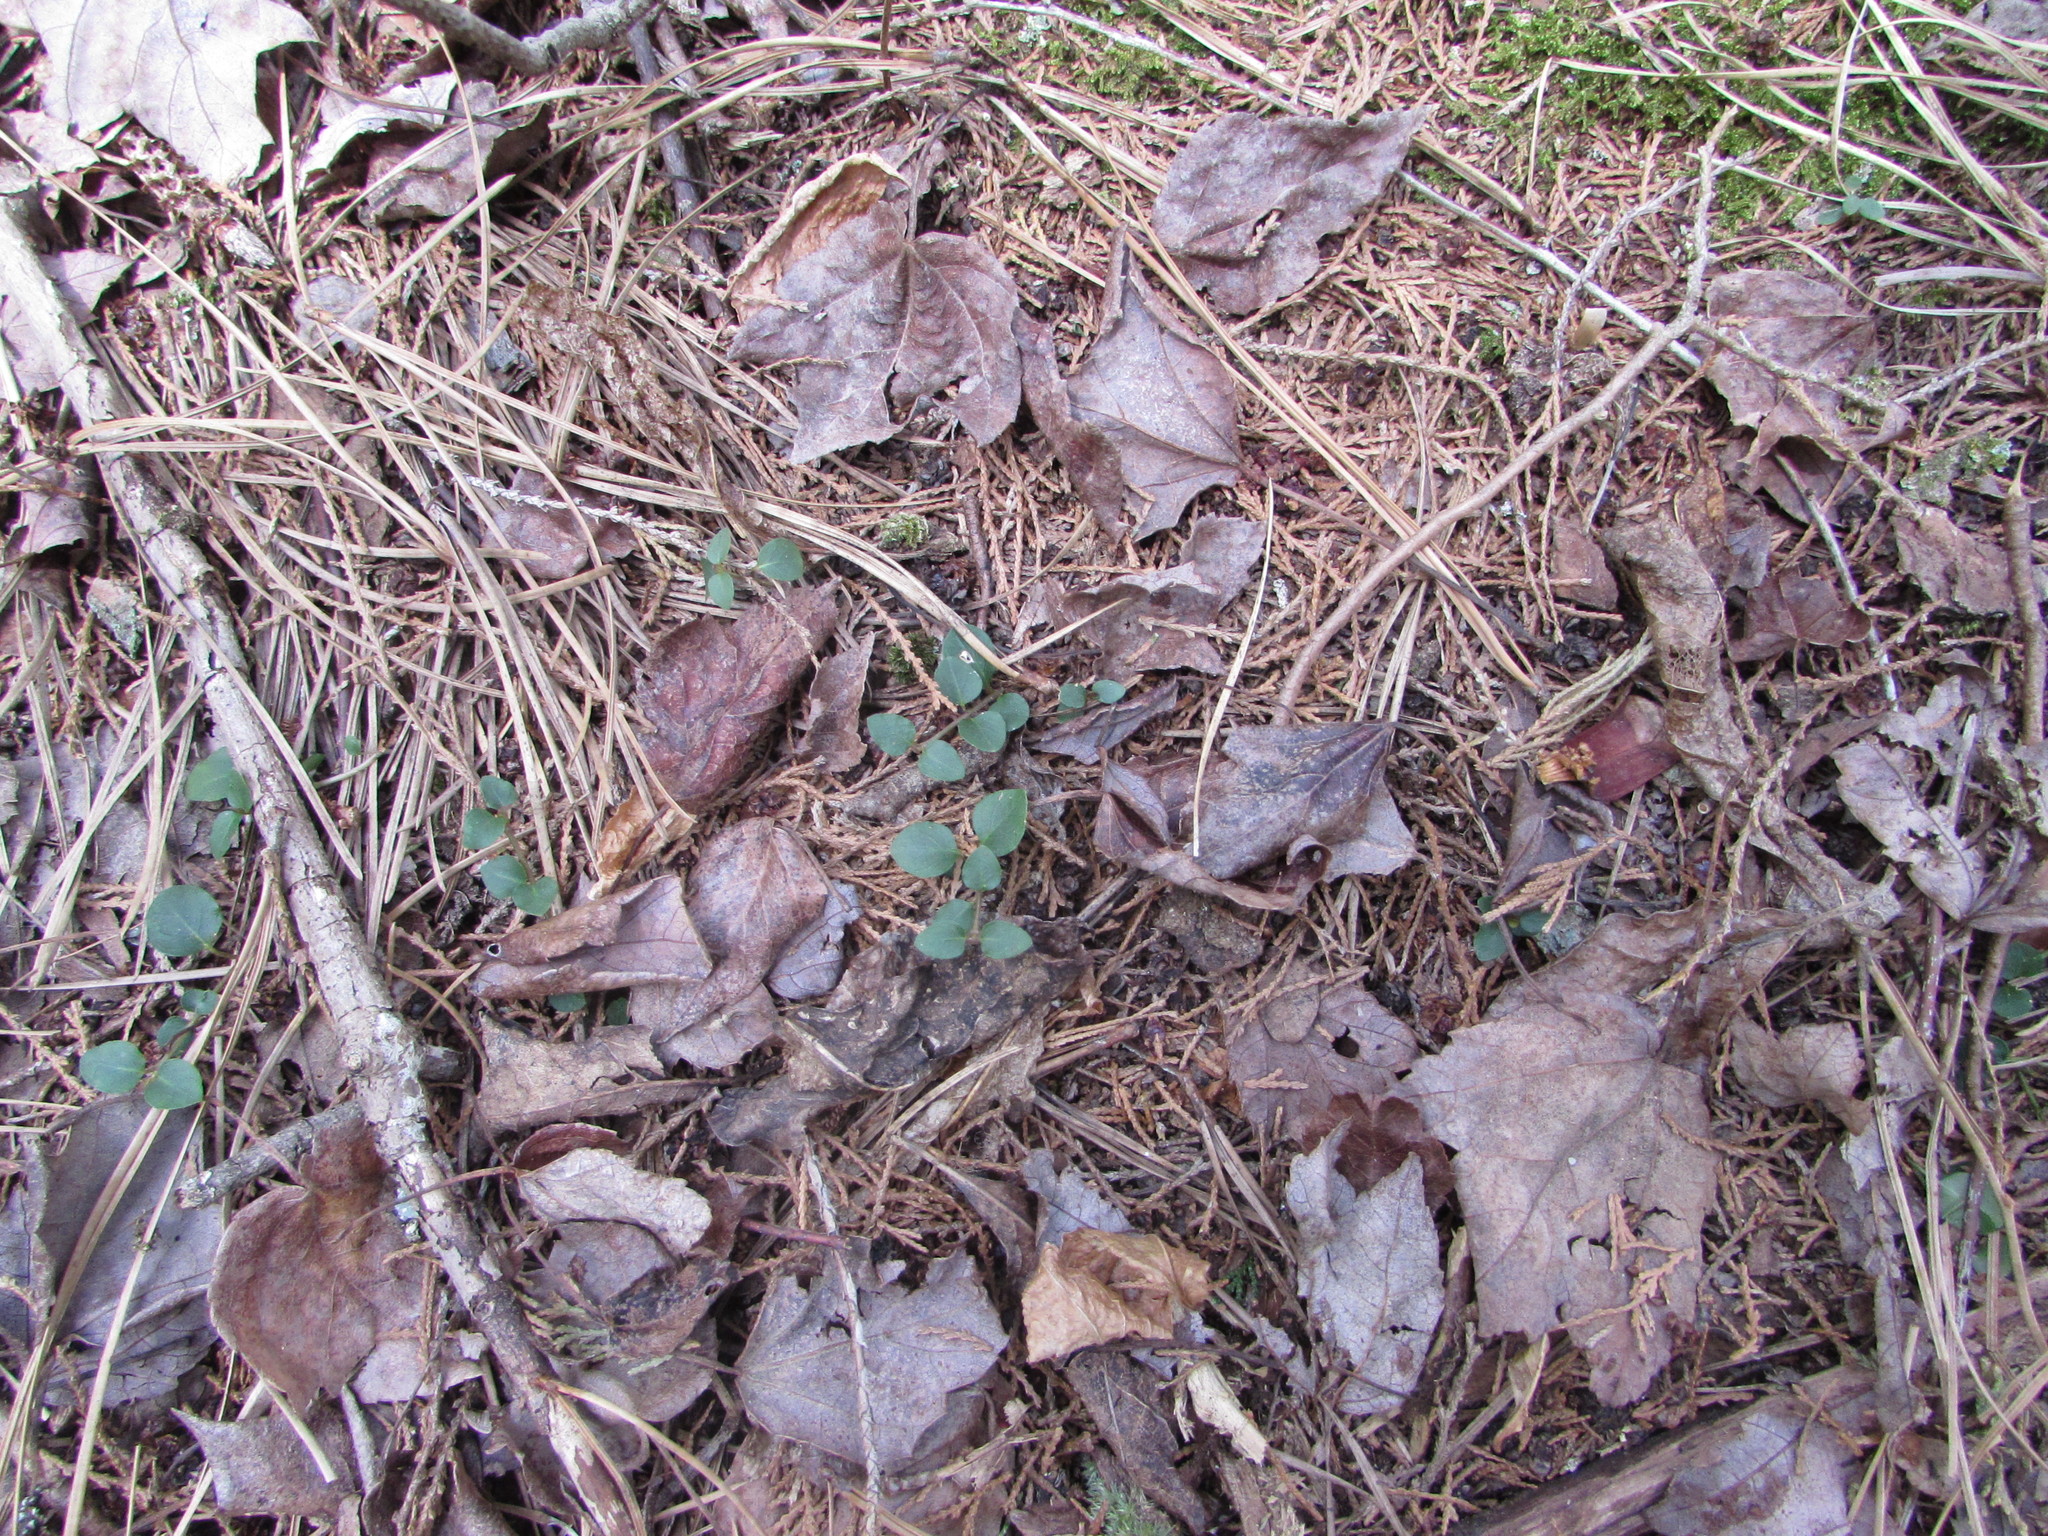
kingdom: Plantae
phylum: Tracheophyta
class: Magnoliopsida
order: Gentianales
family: Rubiaceae
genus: Mitchella
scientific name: Mitchella repens
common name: Partridge-berry
